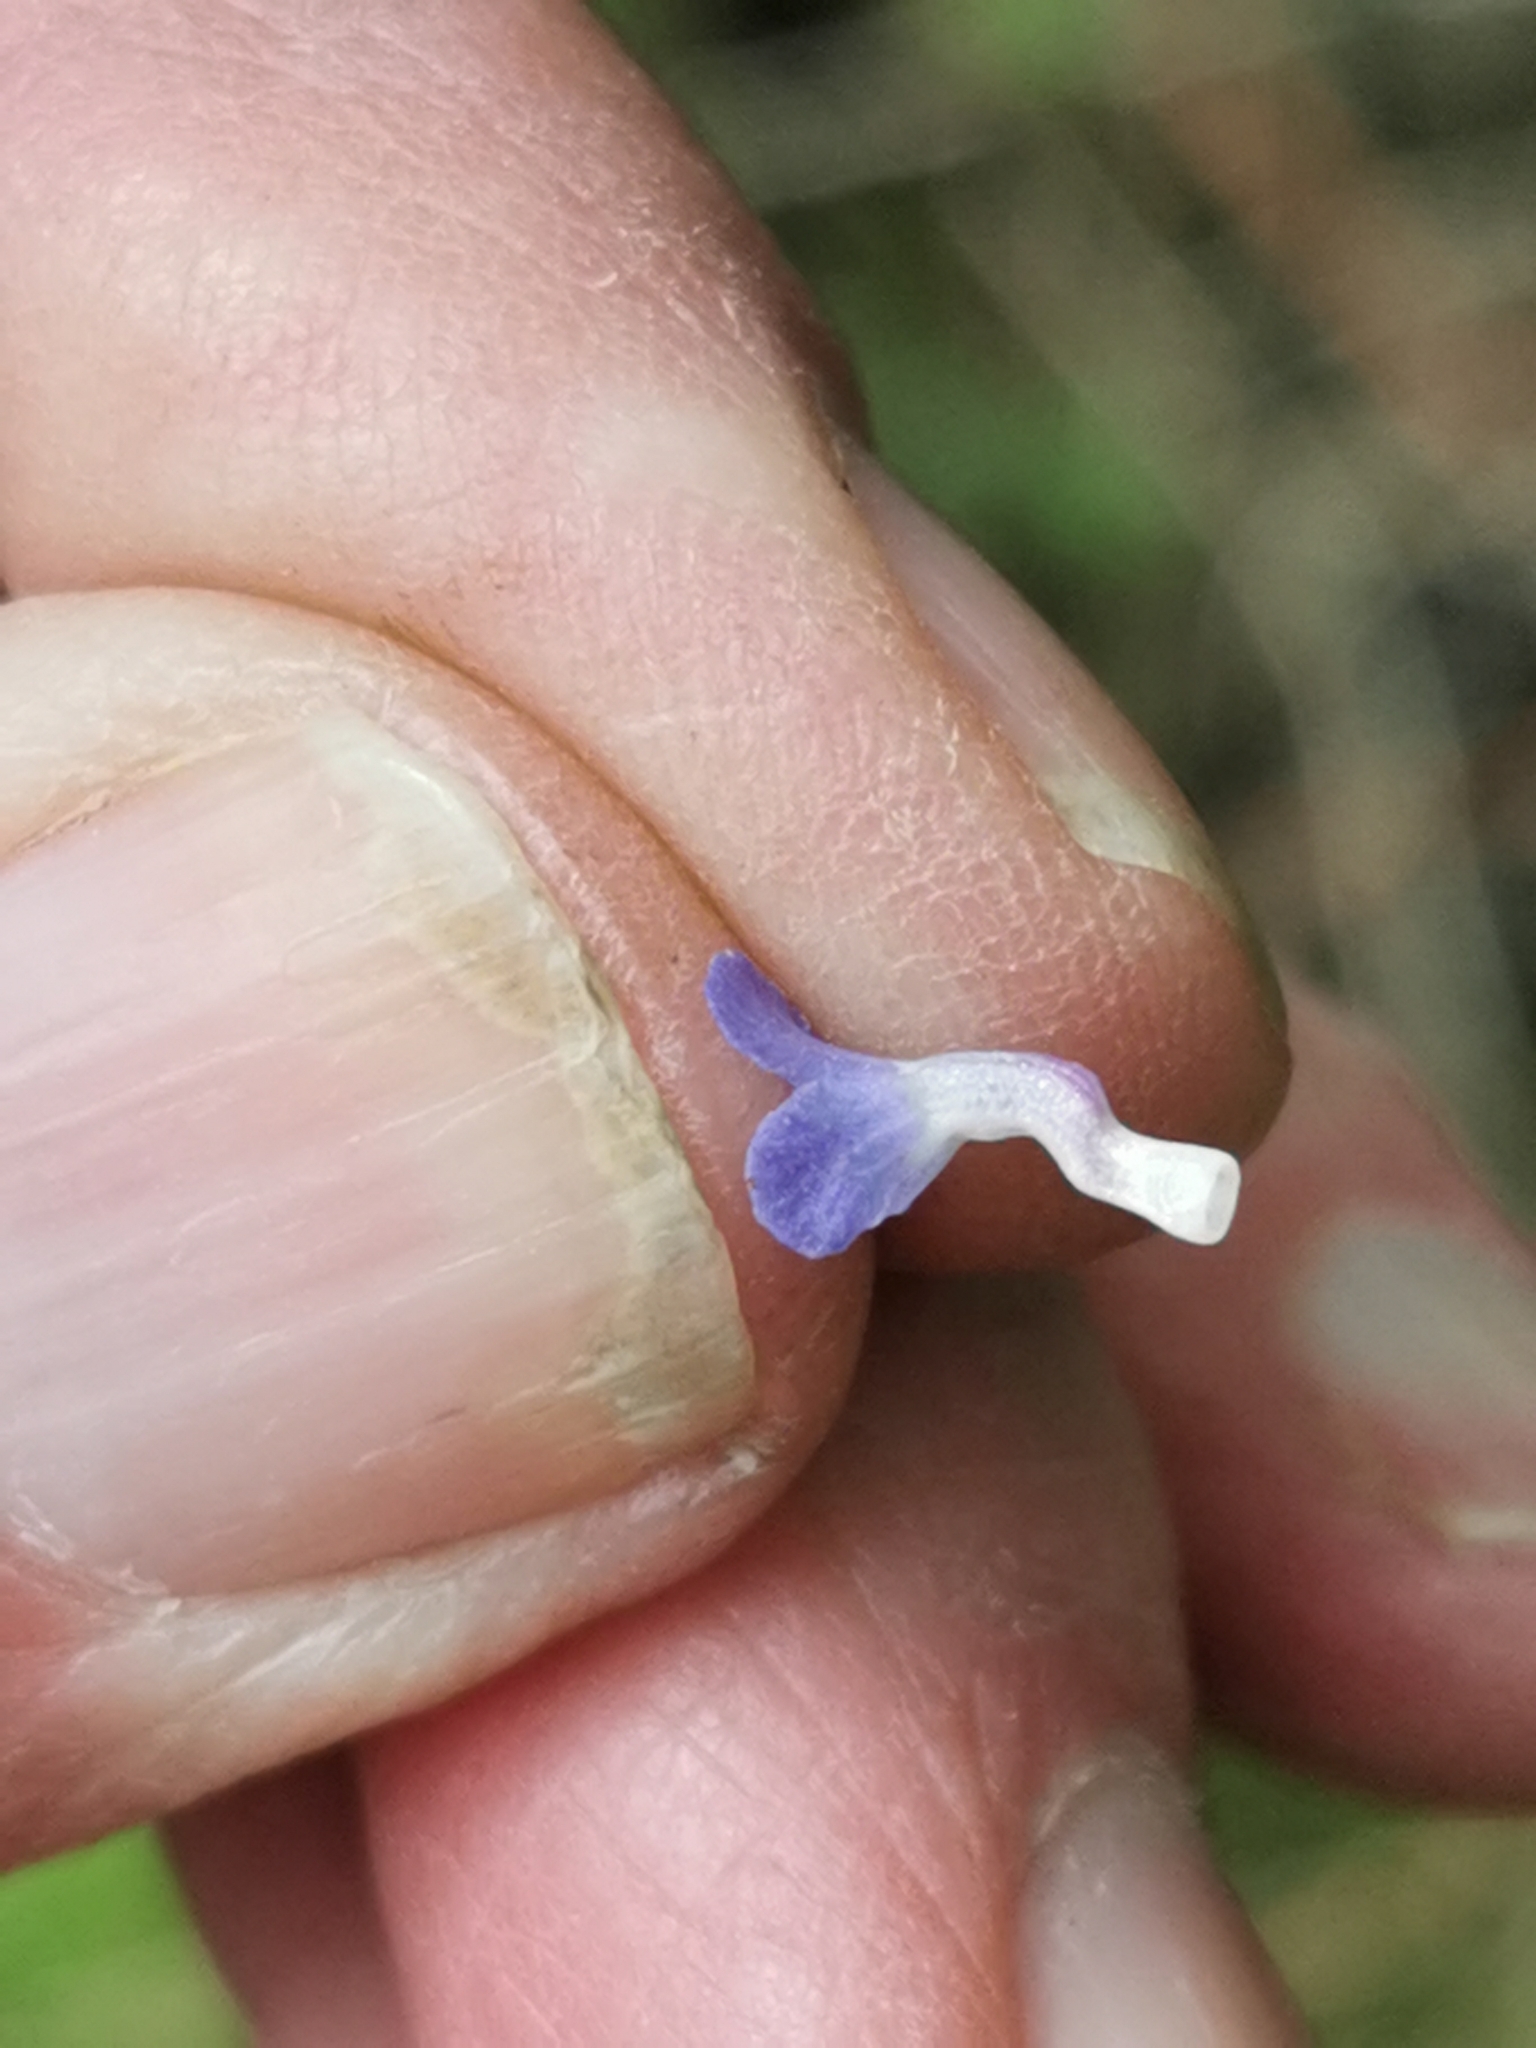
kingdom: Plantae
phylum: Tracheophyta
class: Magnoliopsida
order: Boraginales
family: Boraginaceae
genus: Lycopsis
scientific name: Lycopsis arvensis
